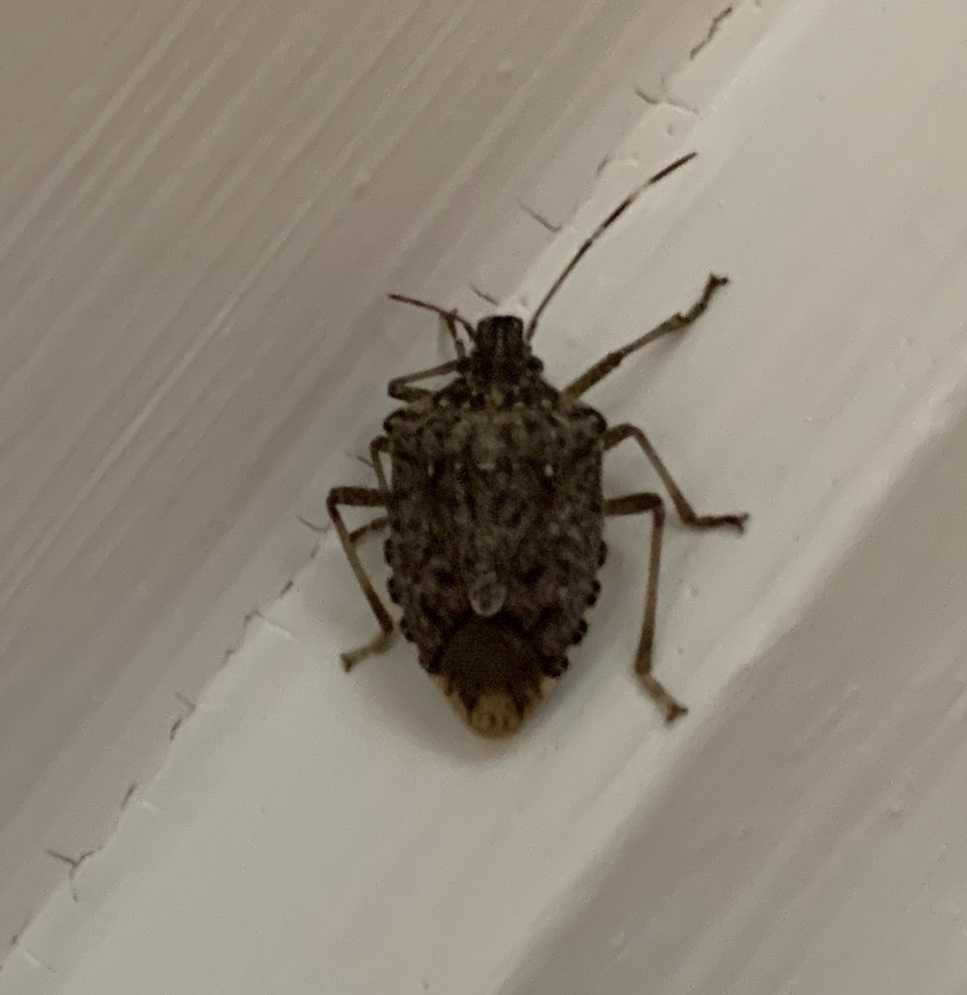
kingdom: Animalia
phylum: Arthropoda
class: Insecta
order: Hemiptera
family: Pentatomidae
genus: Halyomorpha
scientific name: Halyomorpha halys
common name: Brown marmorated stink bug
